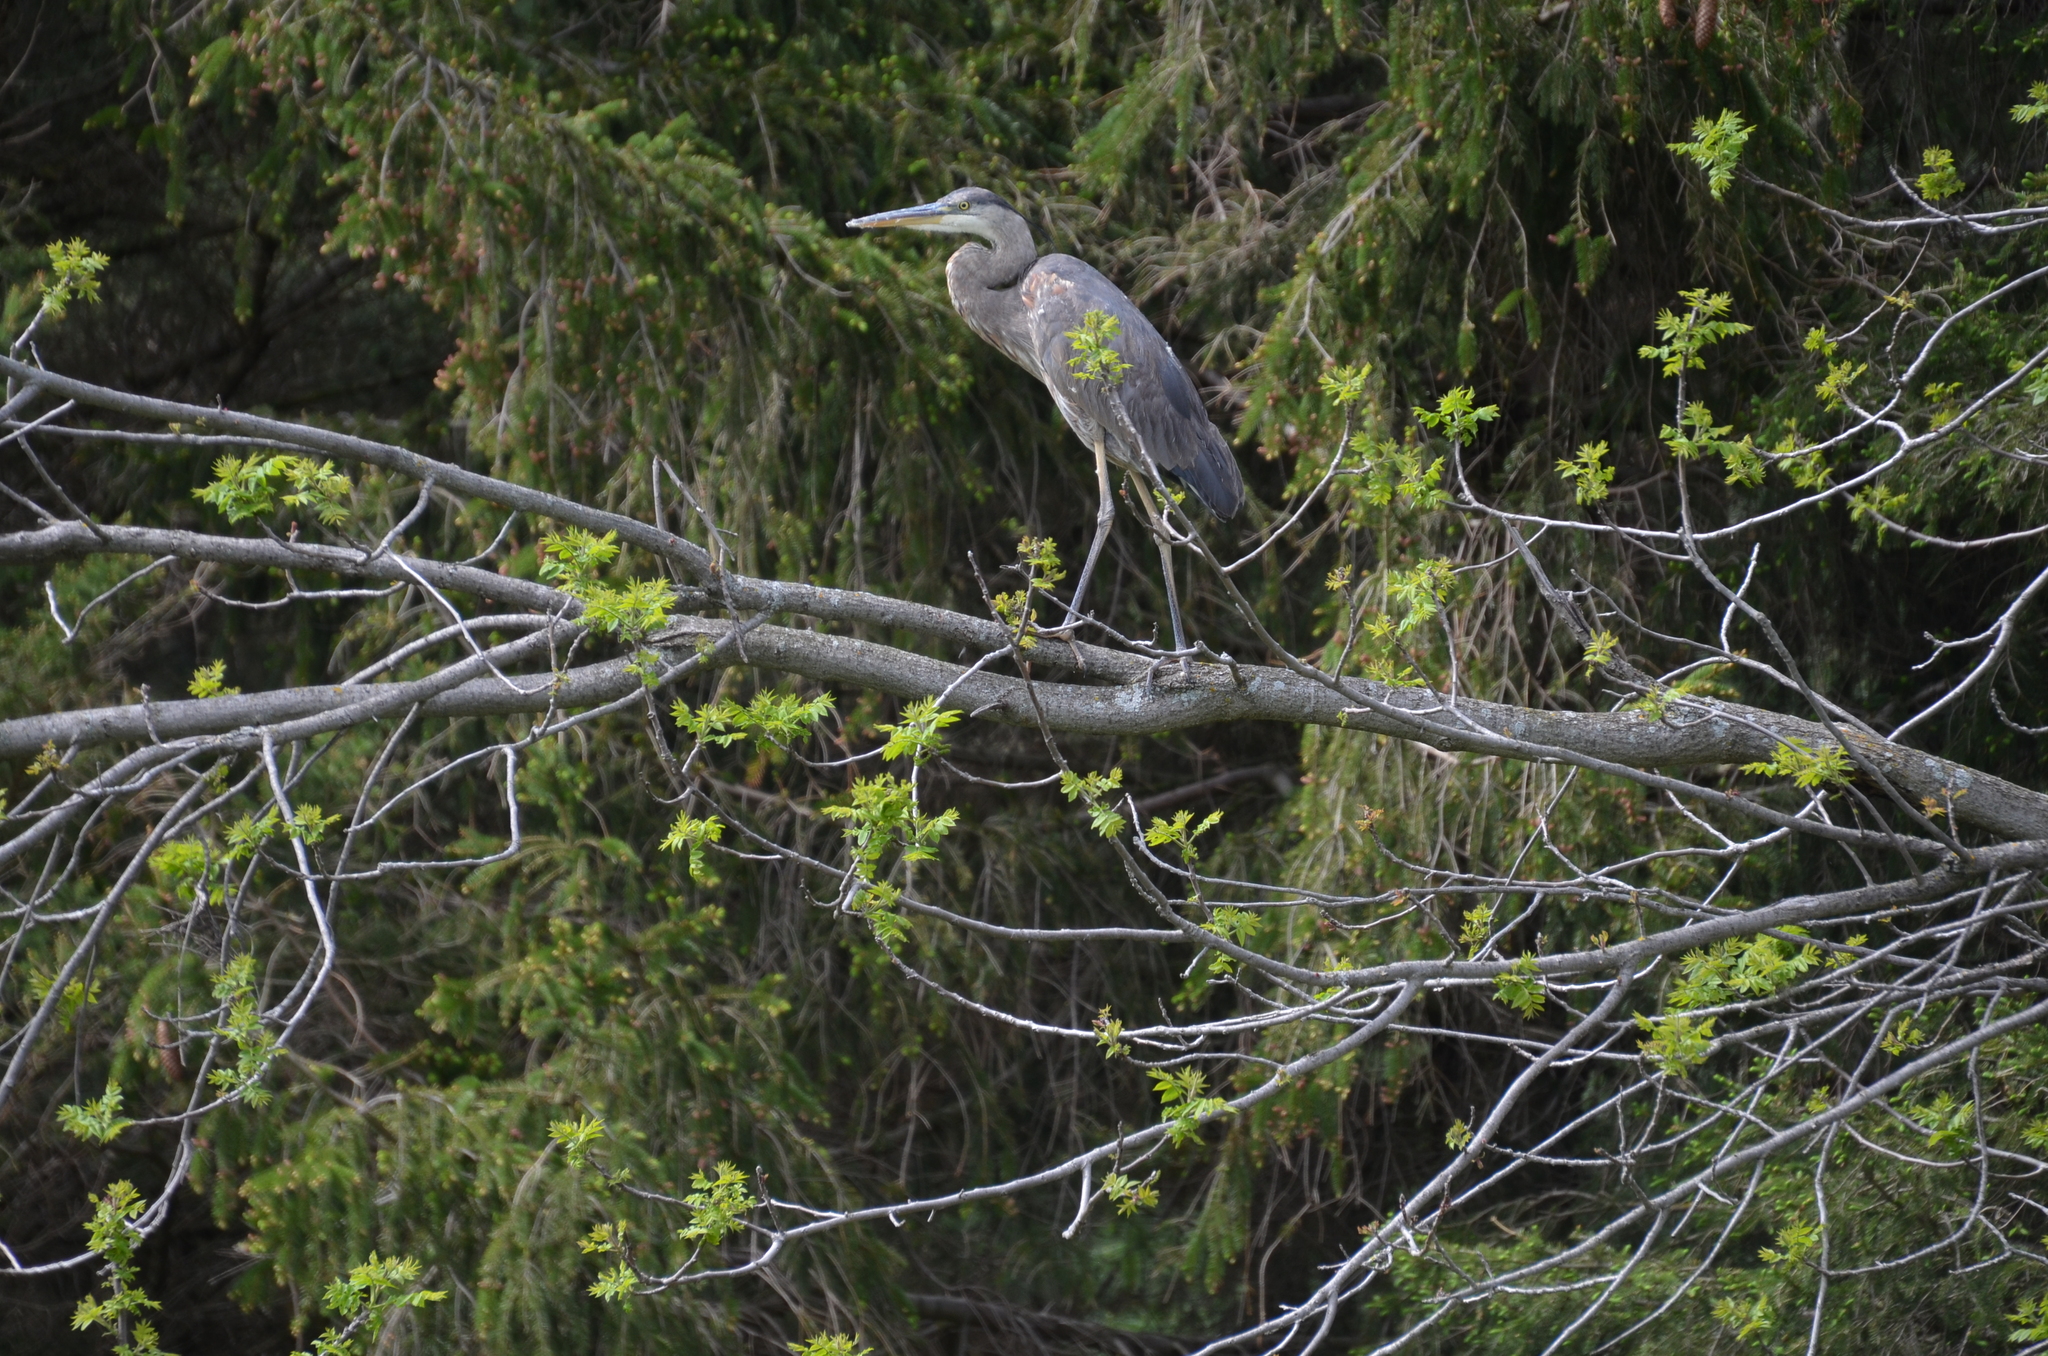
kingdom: Animalia
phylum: Chordata
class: Aves
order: Pelecaniformes
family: Ardeidae
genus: Ardea
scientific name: Ardea herodias
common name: Great blue heron
